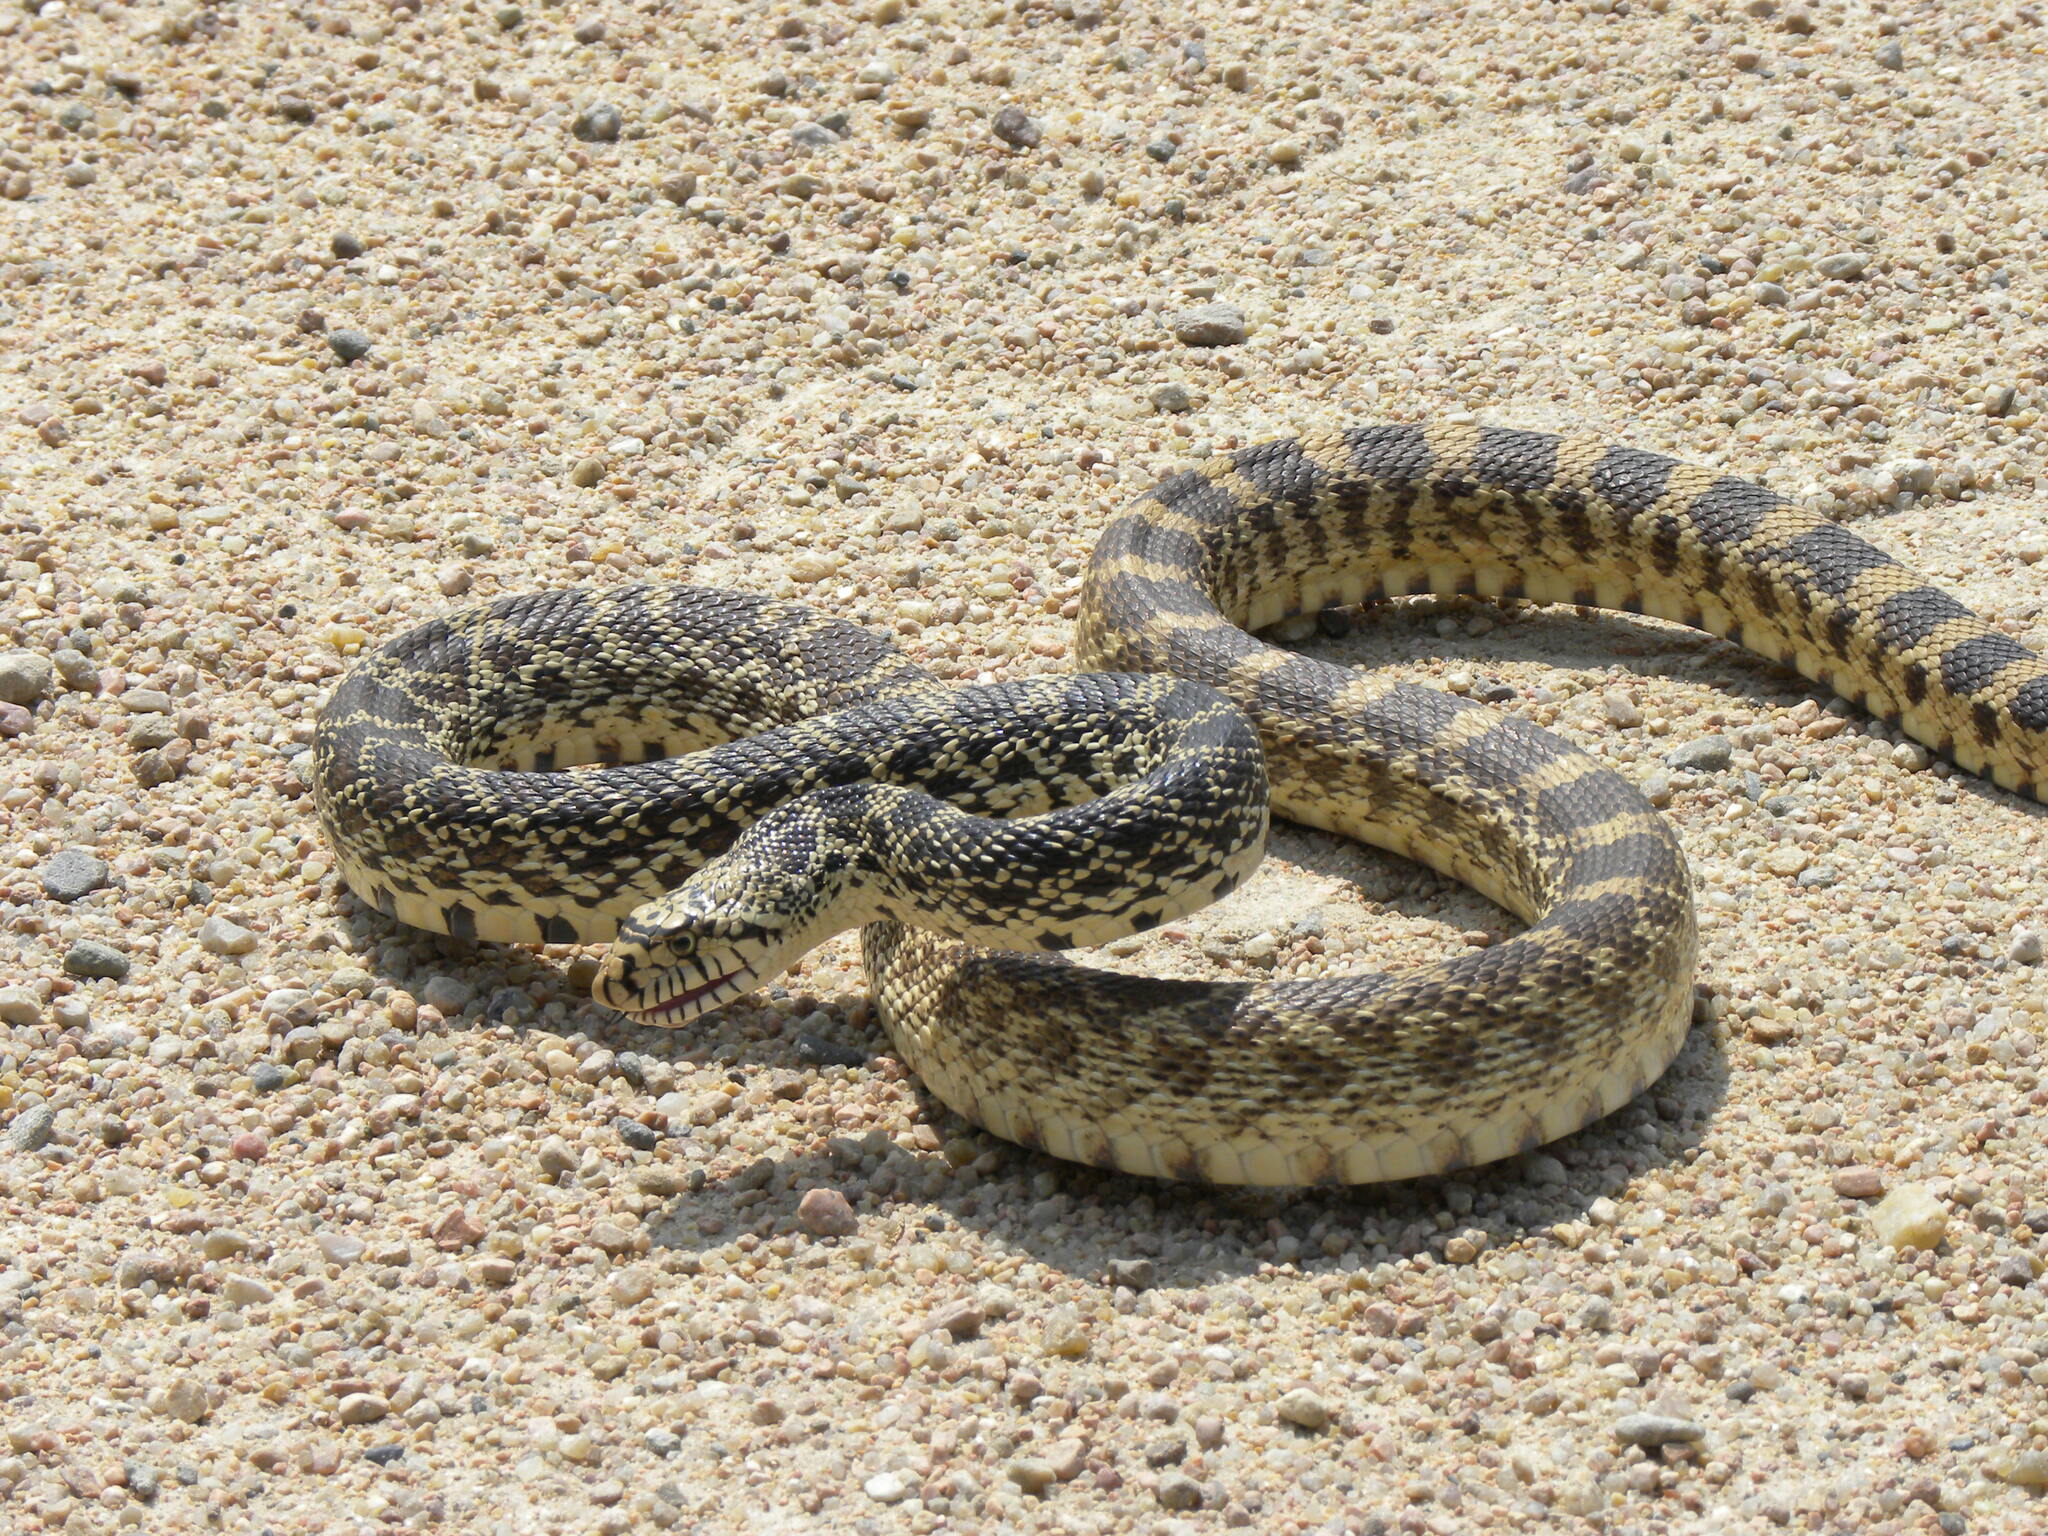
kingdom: Animalia
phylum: Chordata
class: Squamata
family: Colubridae
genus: Pituophis
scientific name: Pituophis catenifer
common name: Gopher snake
